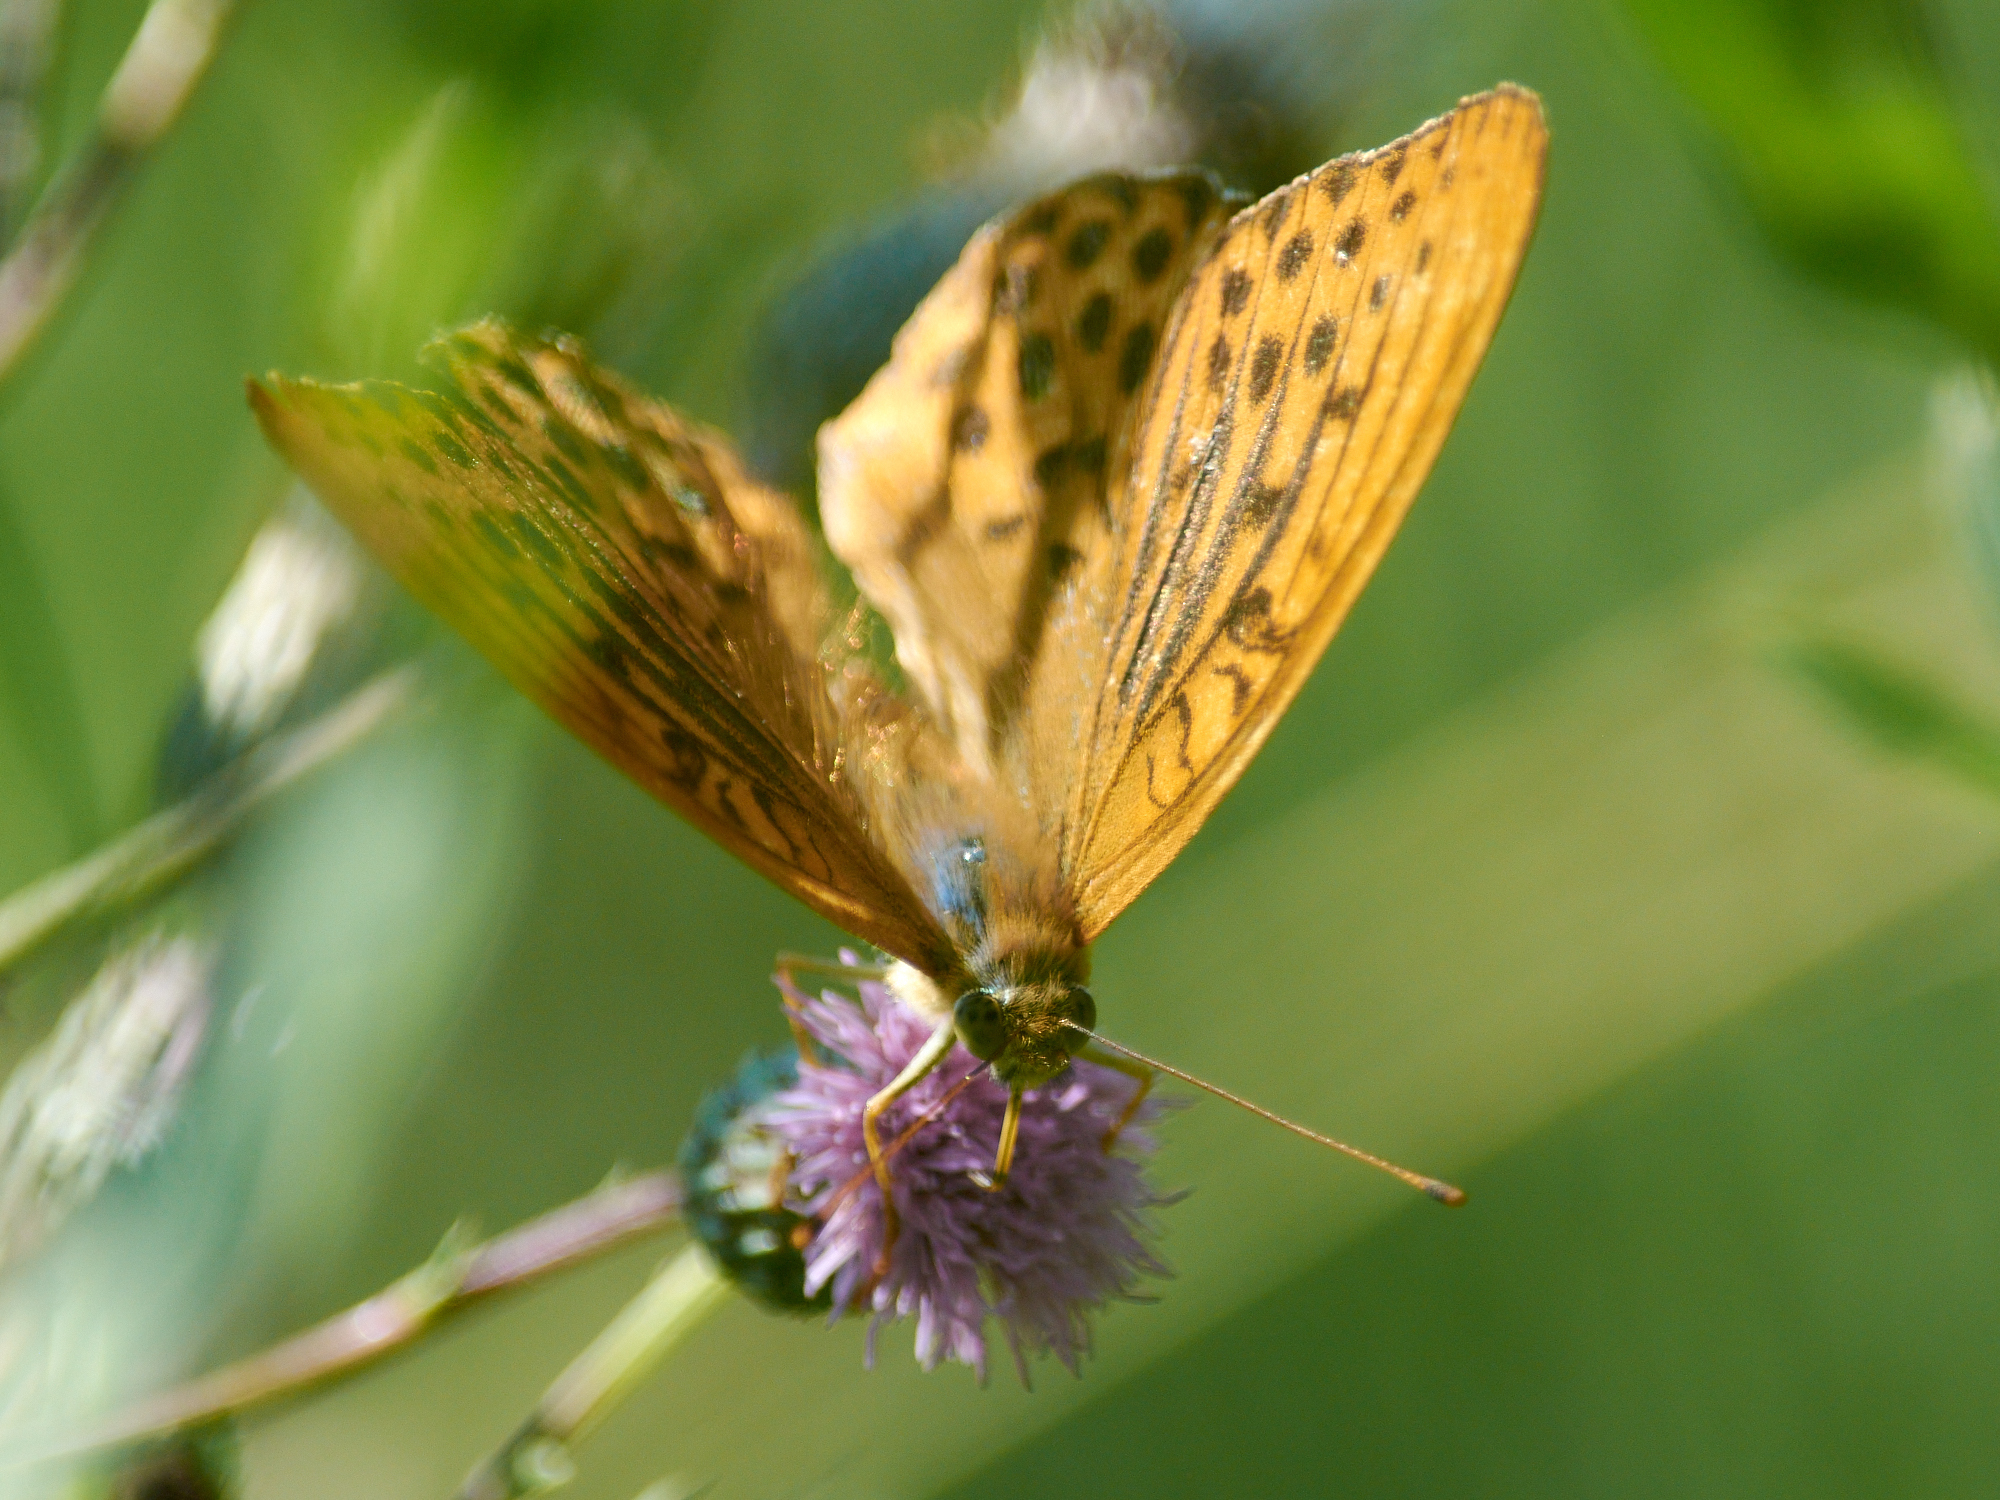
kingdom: Animalia
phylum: Arthropoda
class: Insecta
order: Lepidoptera
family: Nymphalidae
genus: Argynnis
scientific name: Argynnis paphia
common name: Silver-washed fritillary
